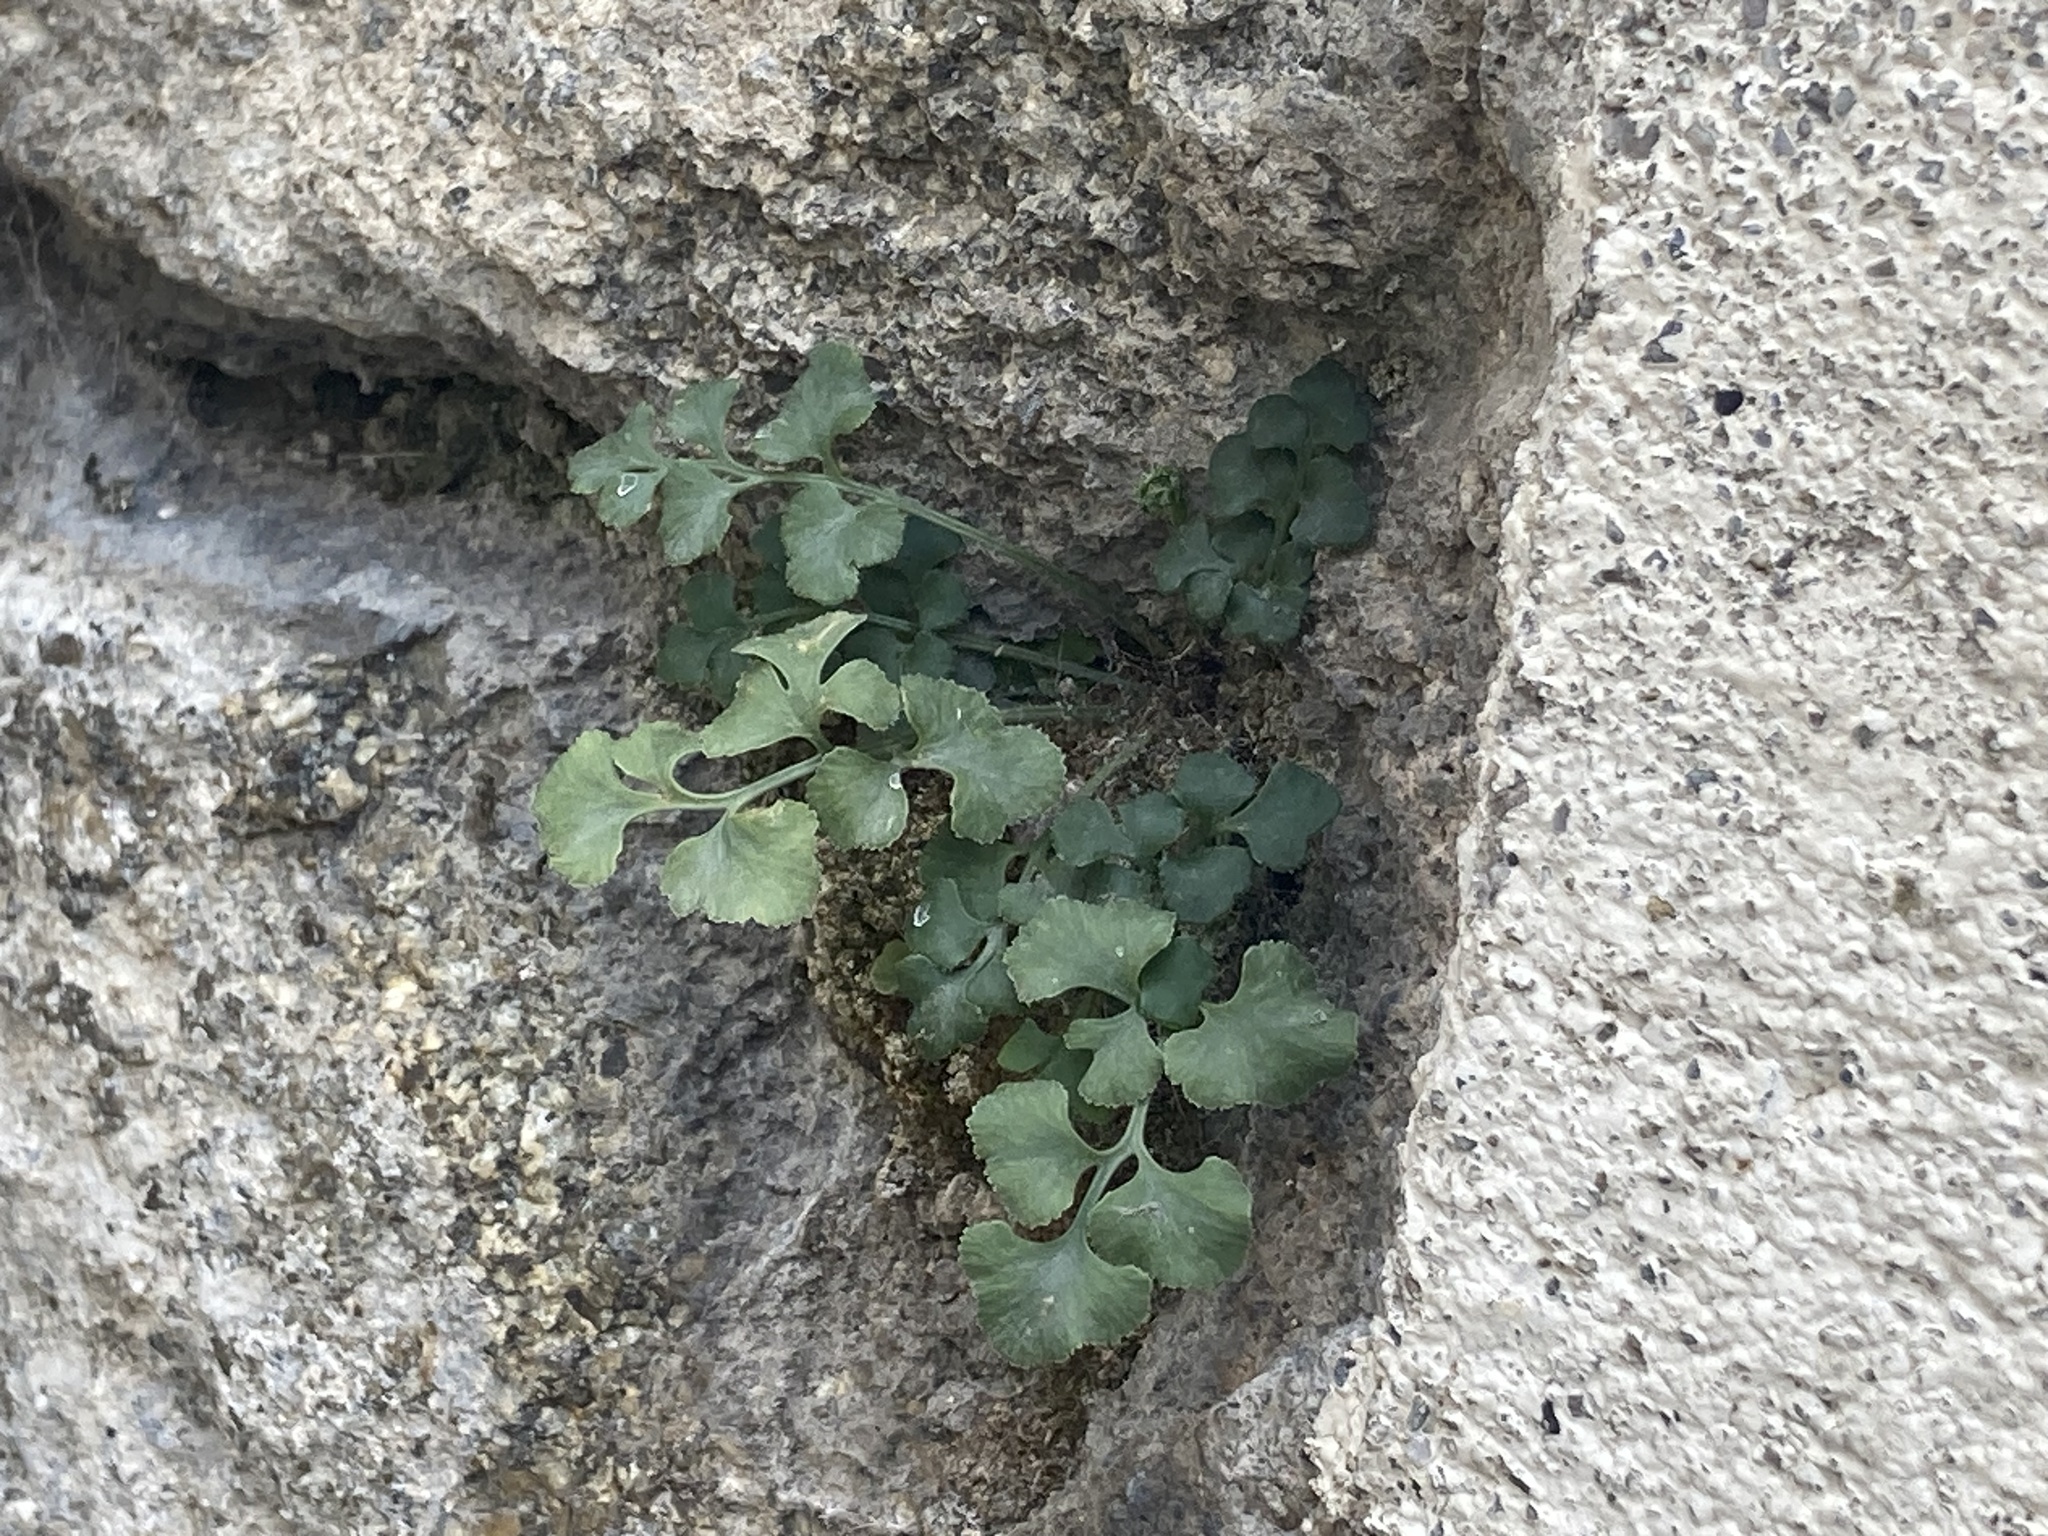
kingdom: Plantae
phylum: Tracheophyta
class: Polypodiopsida
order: Polypodiales
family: Aspleniaceae
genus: Asplenium
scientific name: Asplenium ruta-muraria
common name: Wall-rue
